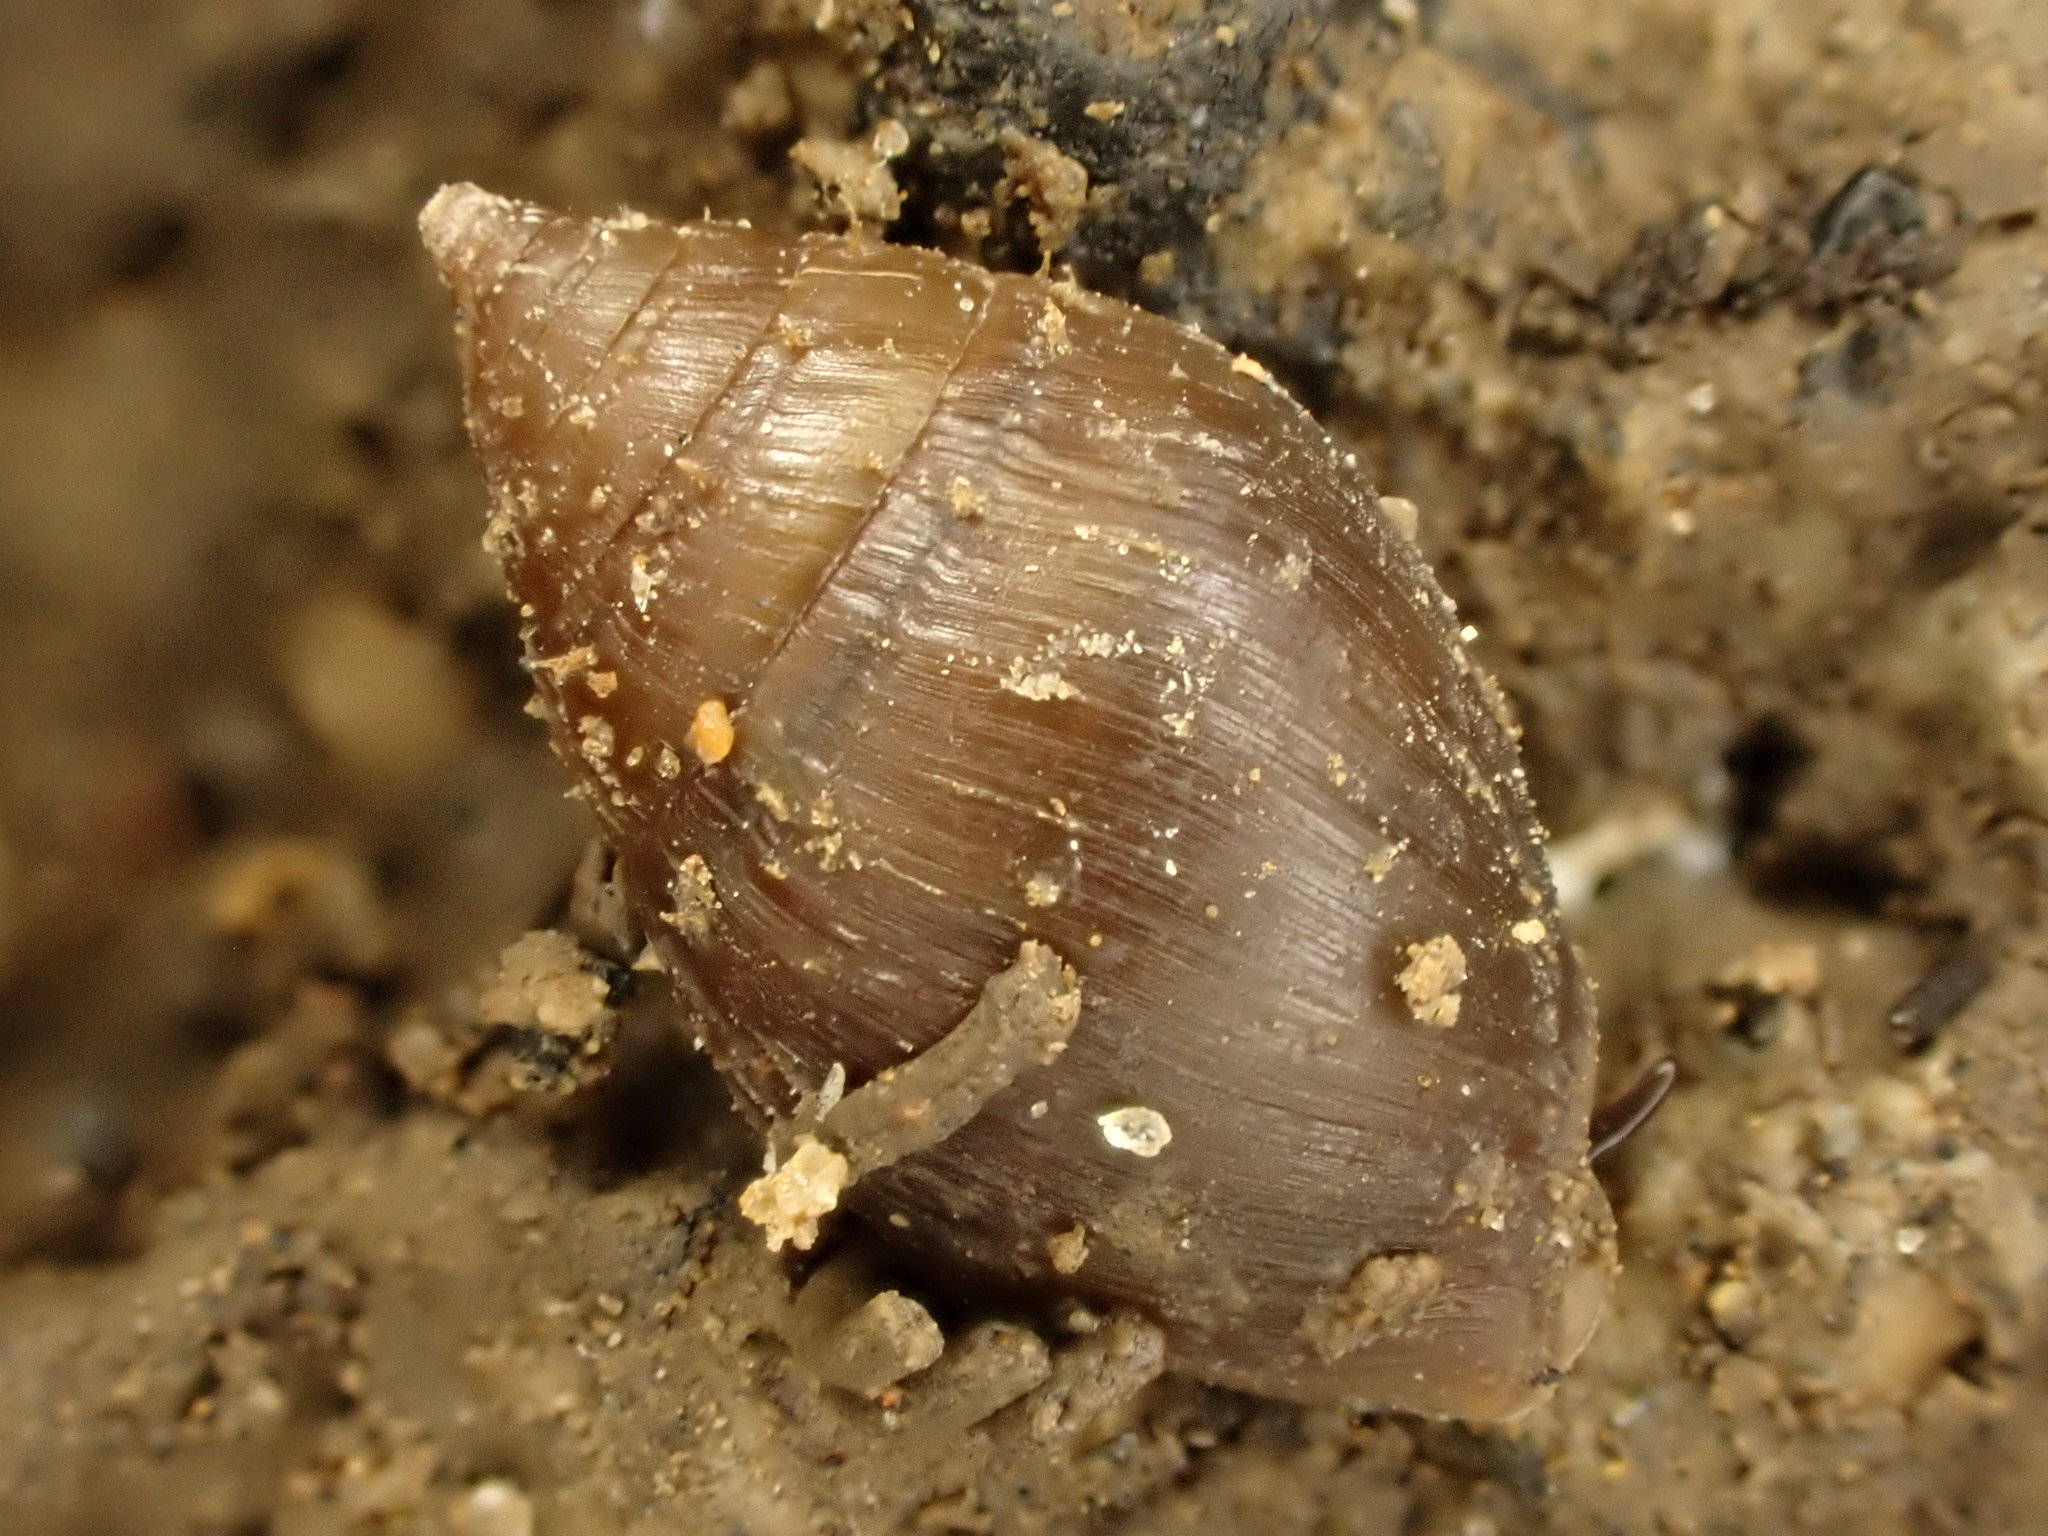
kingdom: Animalia
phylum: Mollusca
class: Gastropoda
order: Ellobiida
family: Ellobiidae
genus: Pleuroloba
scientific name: Pleuroloba costellaris
